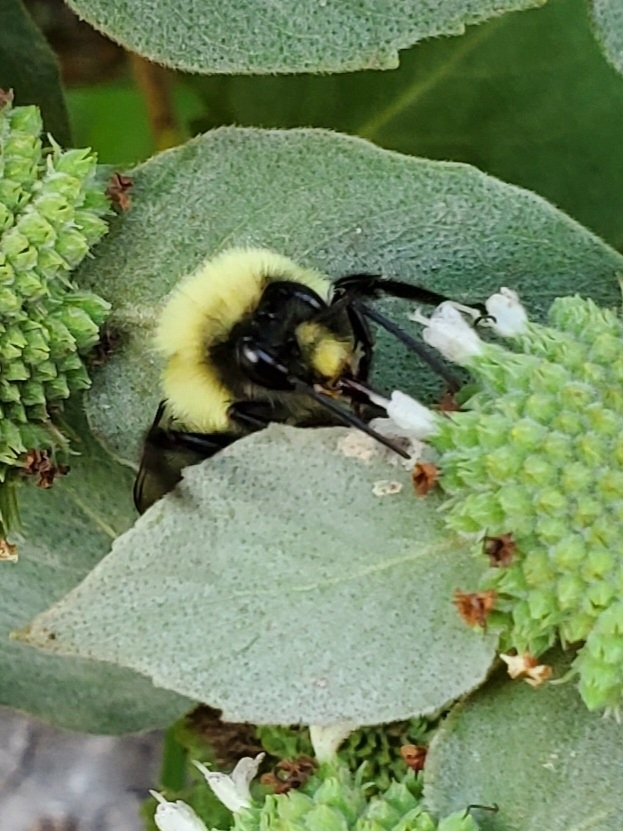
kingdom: Animalia
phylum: Arthropoda
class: Insecta
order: Hymenoptera
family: Apidae
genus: Bombus
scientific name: Bombus impatiens
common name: Common eastern bumble bee
